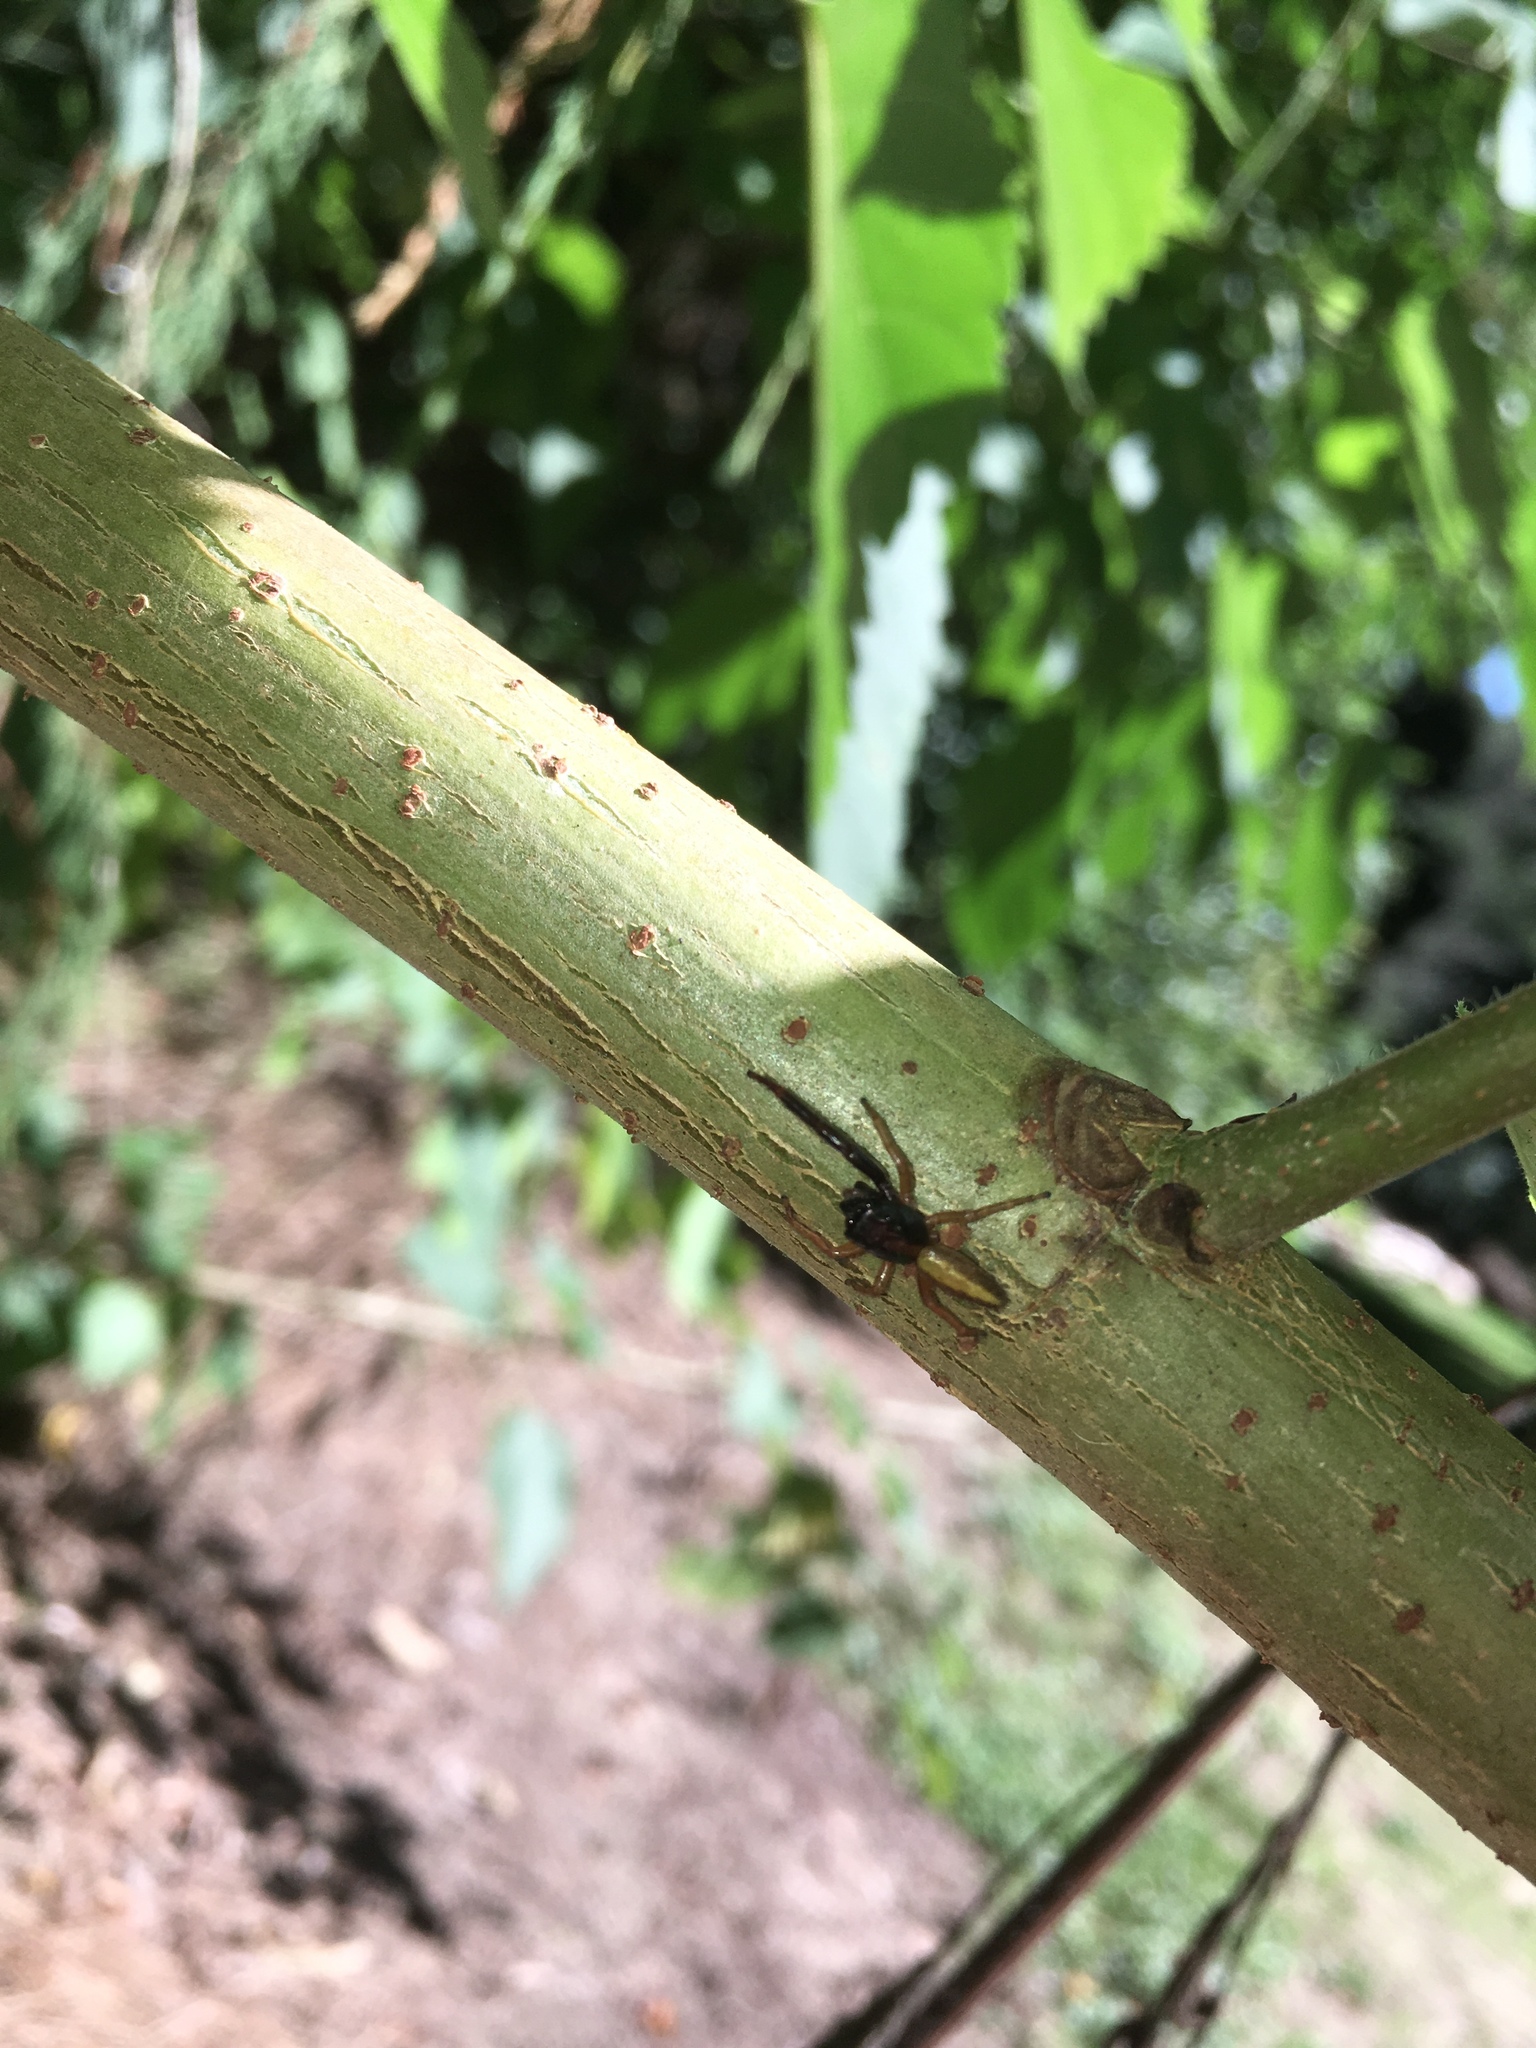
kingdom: Animalia
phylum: Arthropoda
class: Arachnida
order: Araneae
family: Salticidae
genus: Trite
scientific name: Trite planiceps
